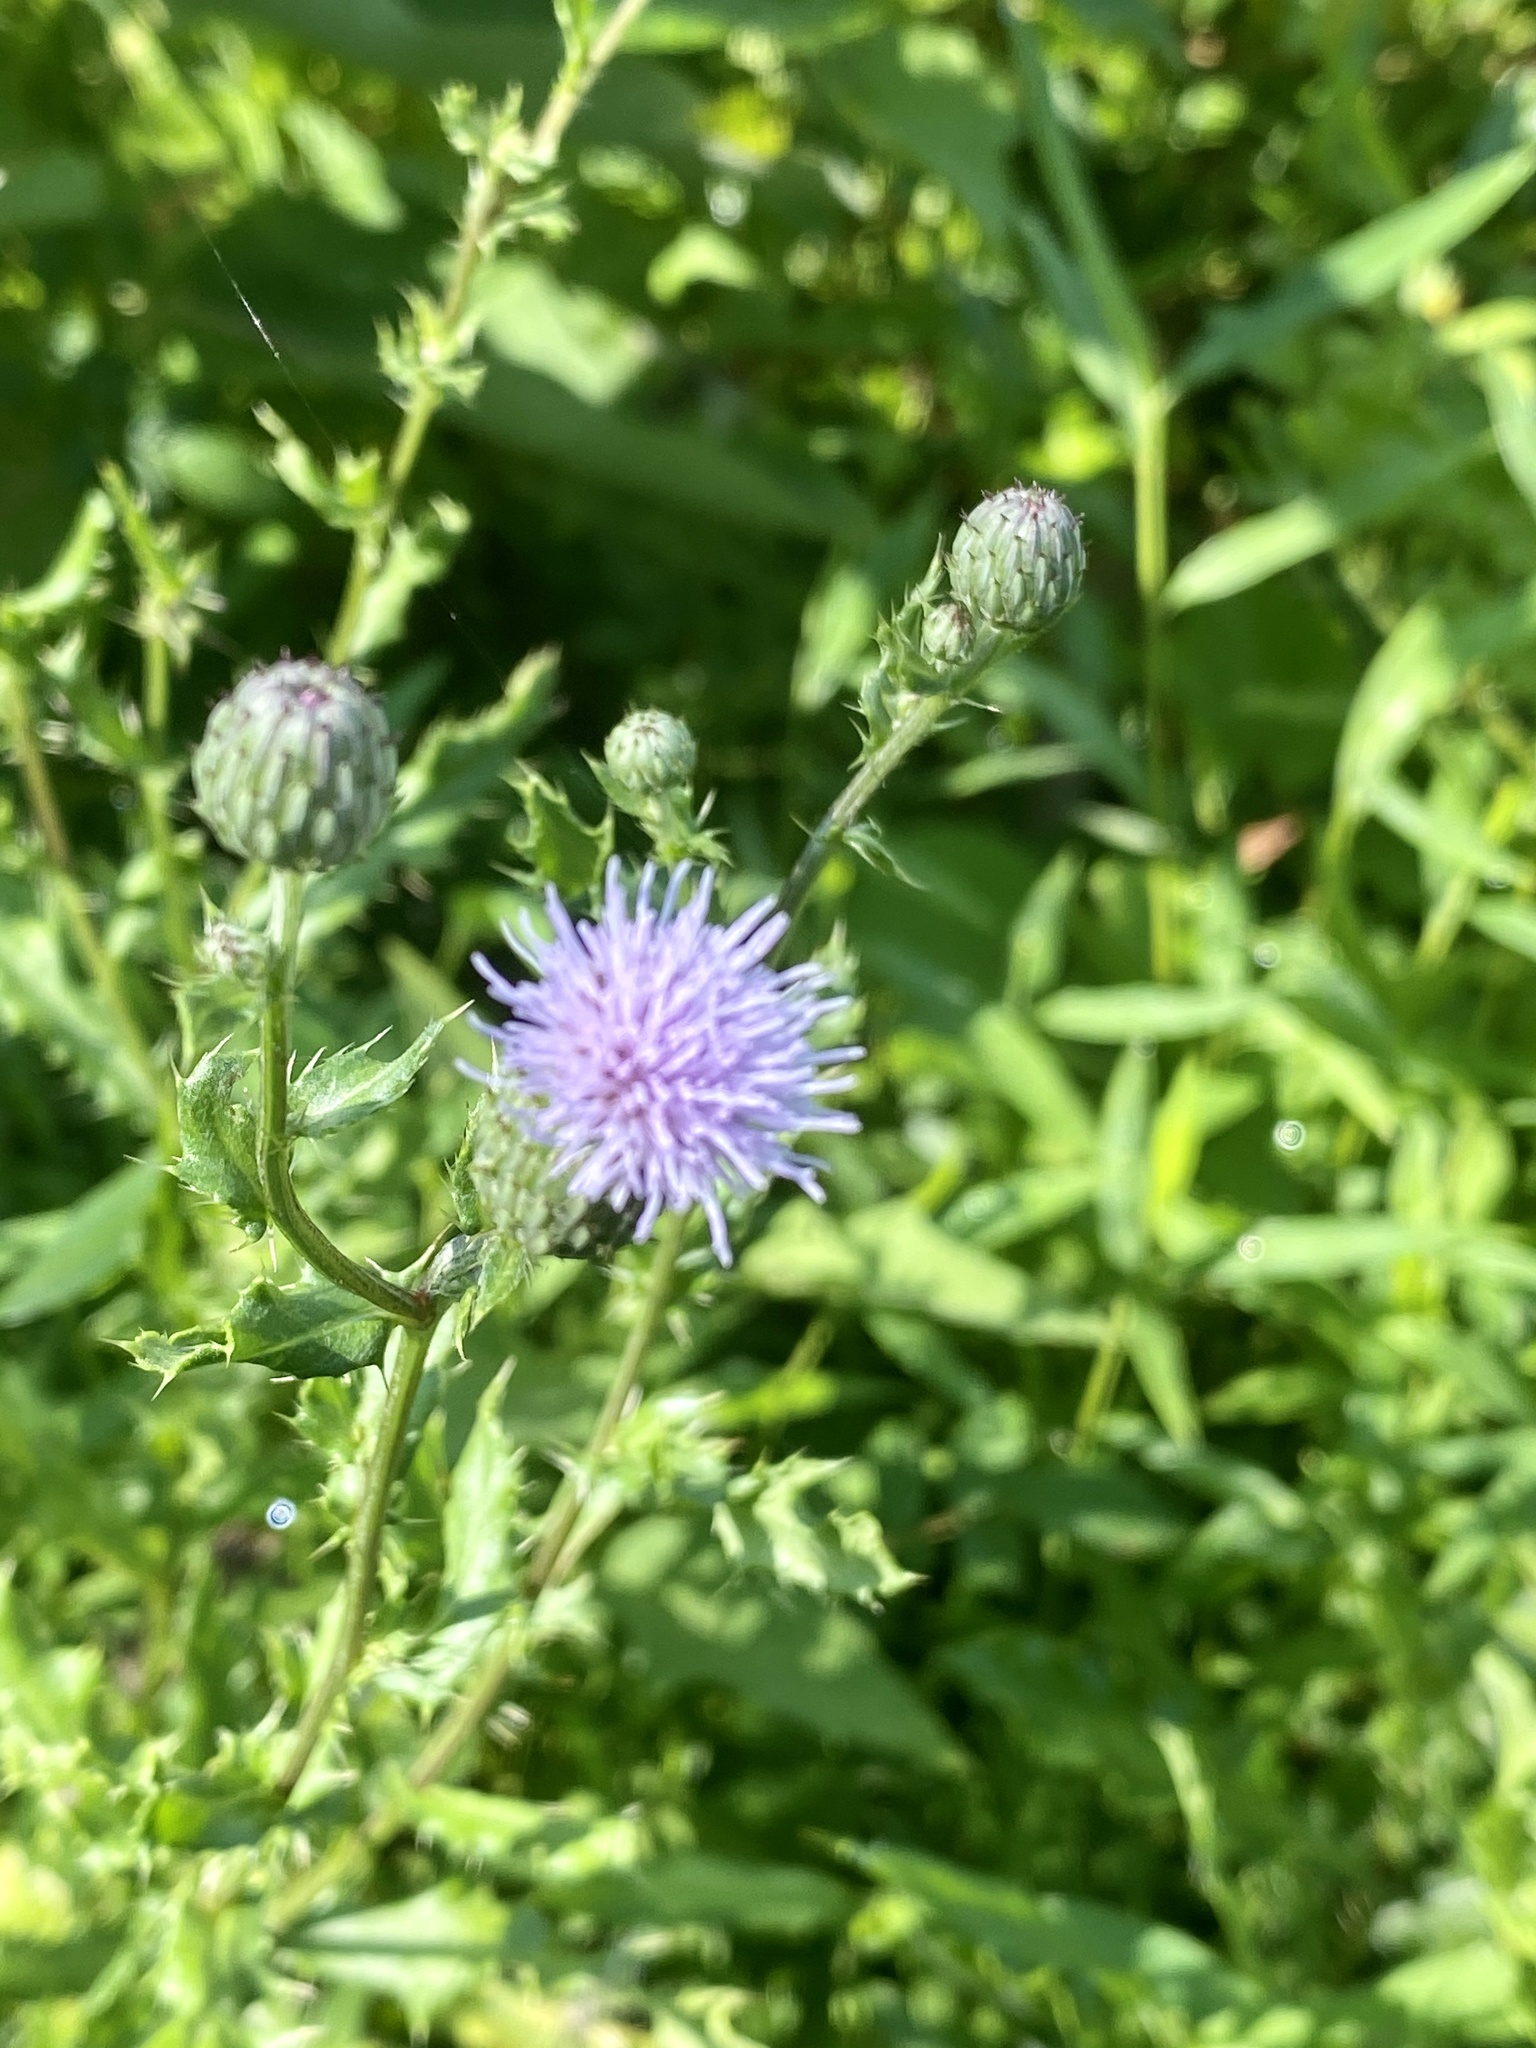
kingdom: Plantae
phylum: Tracheophyta
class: Magnoliopsida
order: Asterales
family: Asteraceae
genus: Cirsium
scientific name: Cirsium arvense
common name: Creeping thistle
